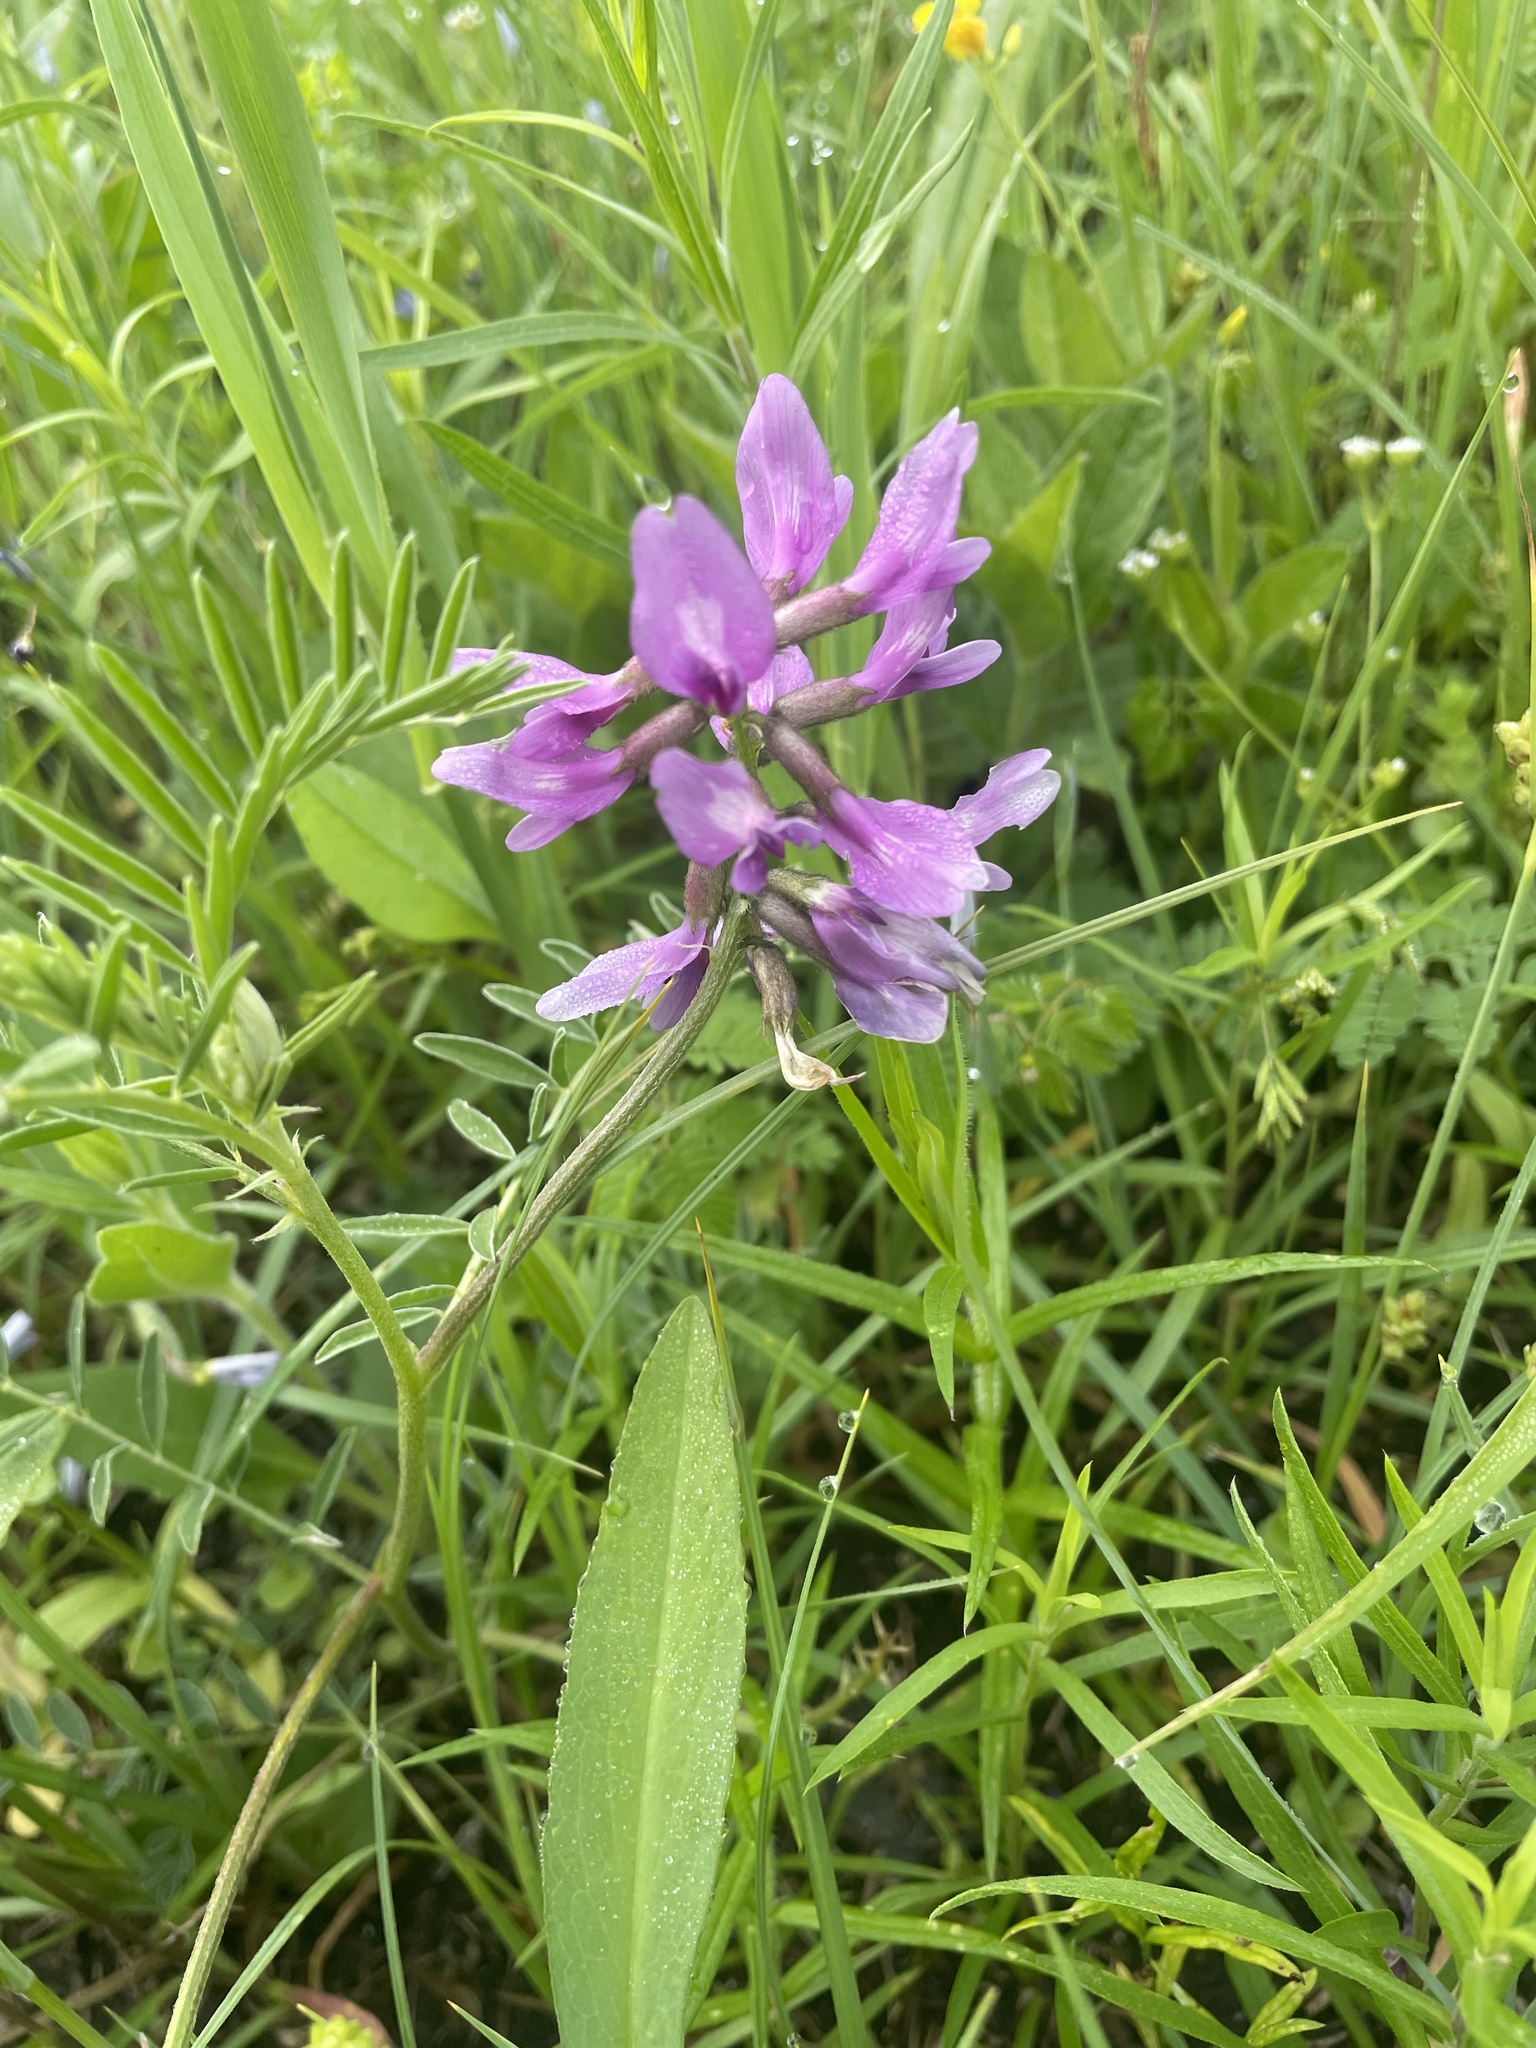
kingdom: Plantae
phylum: Tracheophyta
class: Magnoliopsida
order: Fabales
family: Fabaceae
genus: Astragalus
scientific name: Astragalus crassicarpus
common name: Ground-plum milk-vetch
